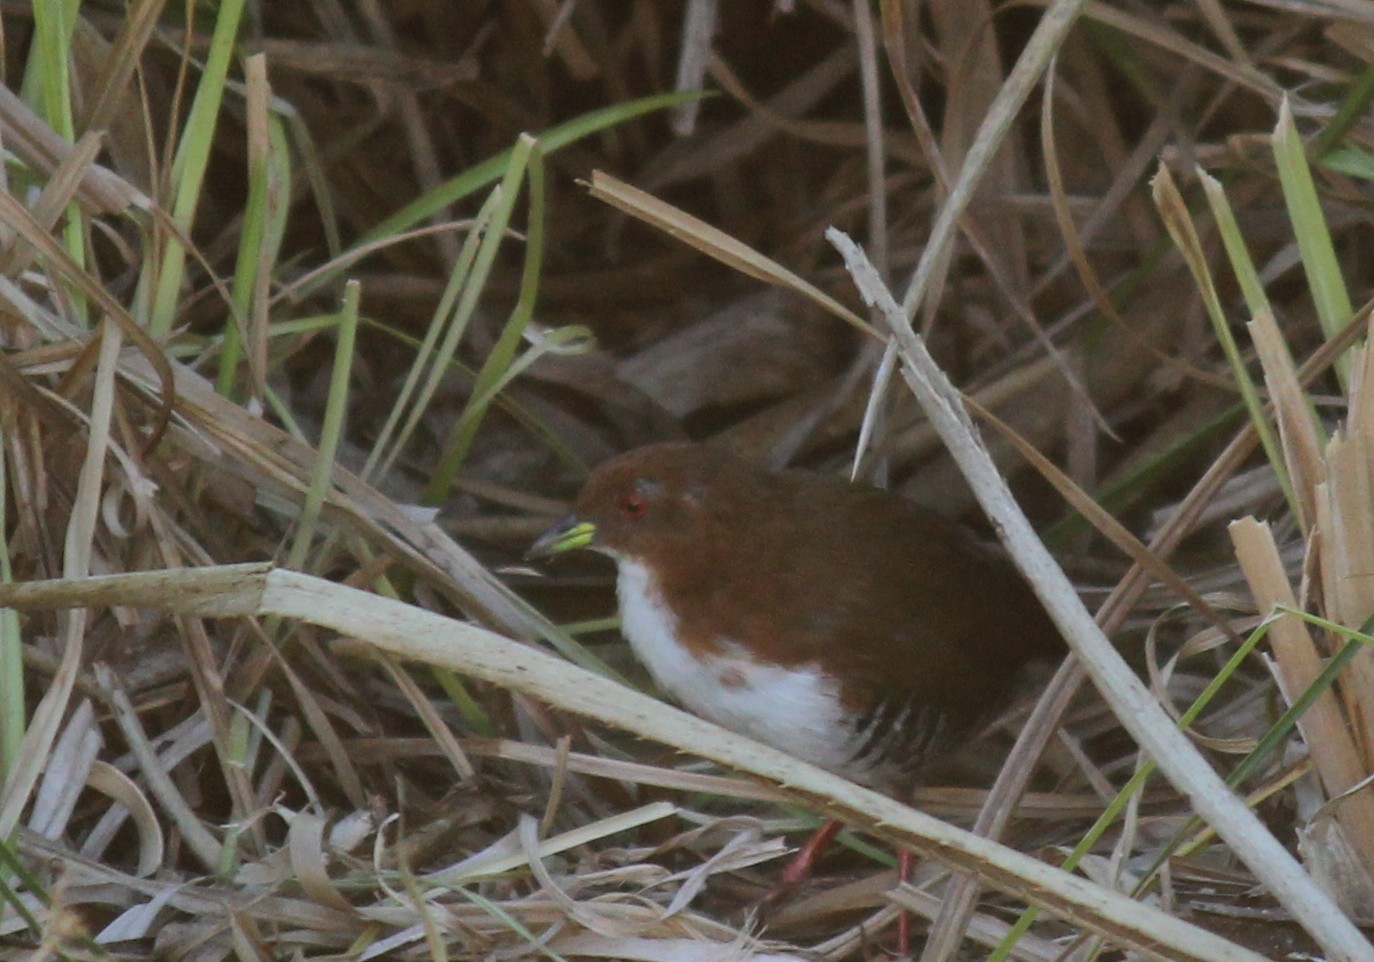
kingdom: Animalia
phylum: Chordata
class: Aves
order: Gruiformes
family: Rallidae
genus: Laterallus
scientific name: Laterallus leucopyrrhus
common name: Red-and-white crake
